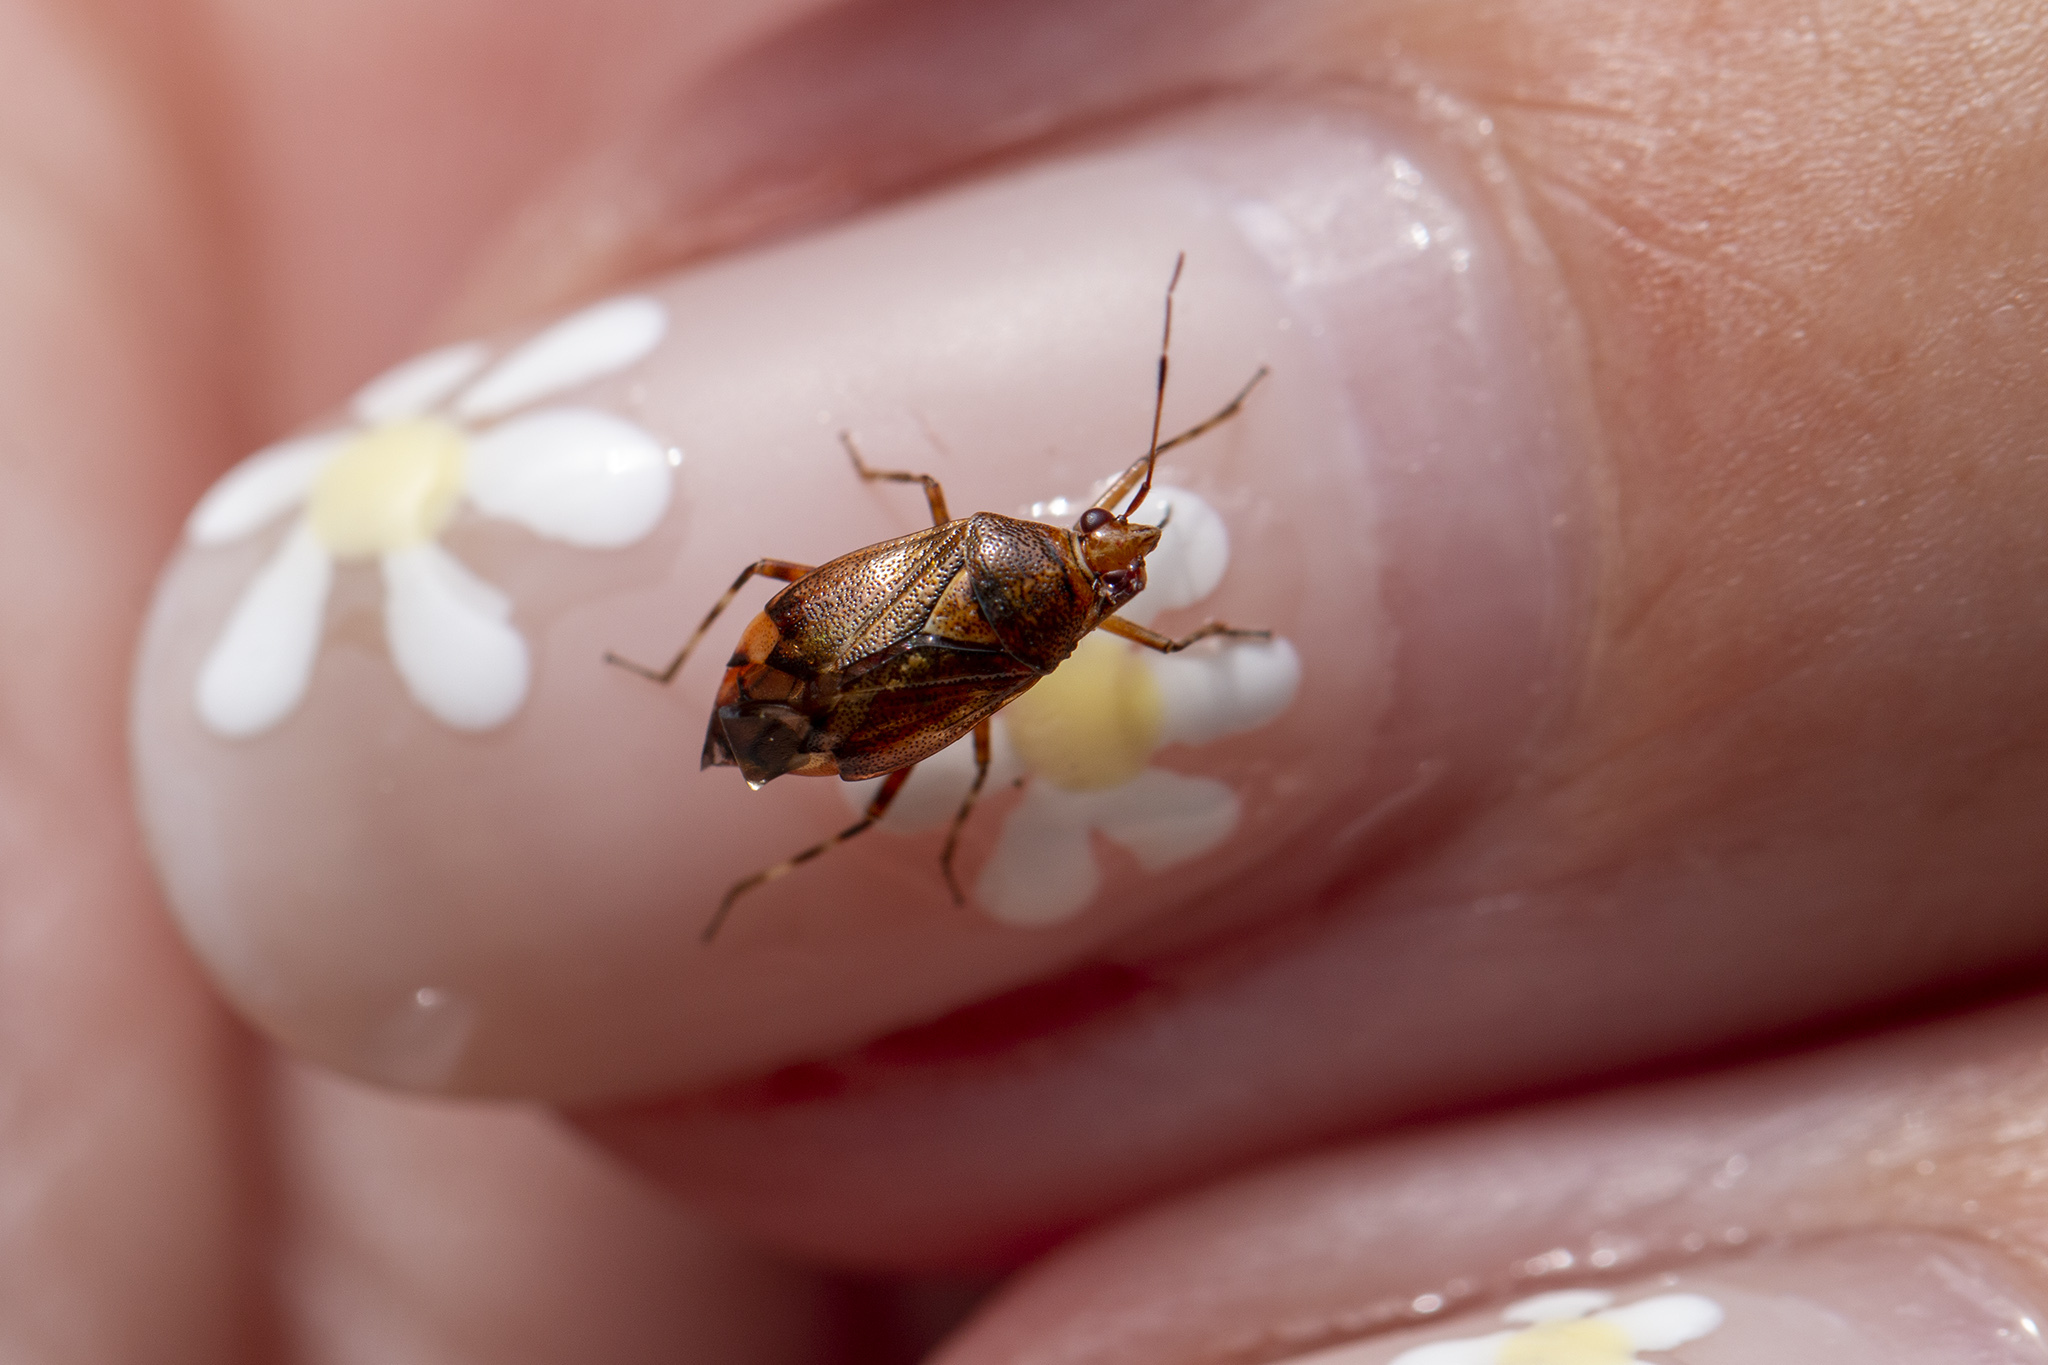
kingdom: Animalia
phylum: Arthropoda
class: Insecta
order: Hemiptera
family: Miridae
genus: Deraeocoris
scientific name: Deraeocoris flavilinea
